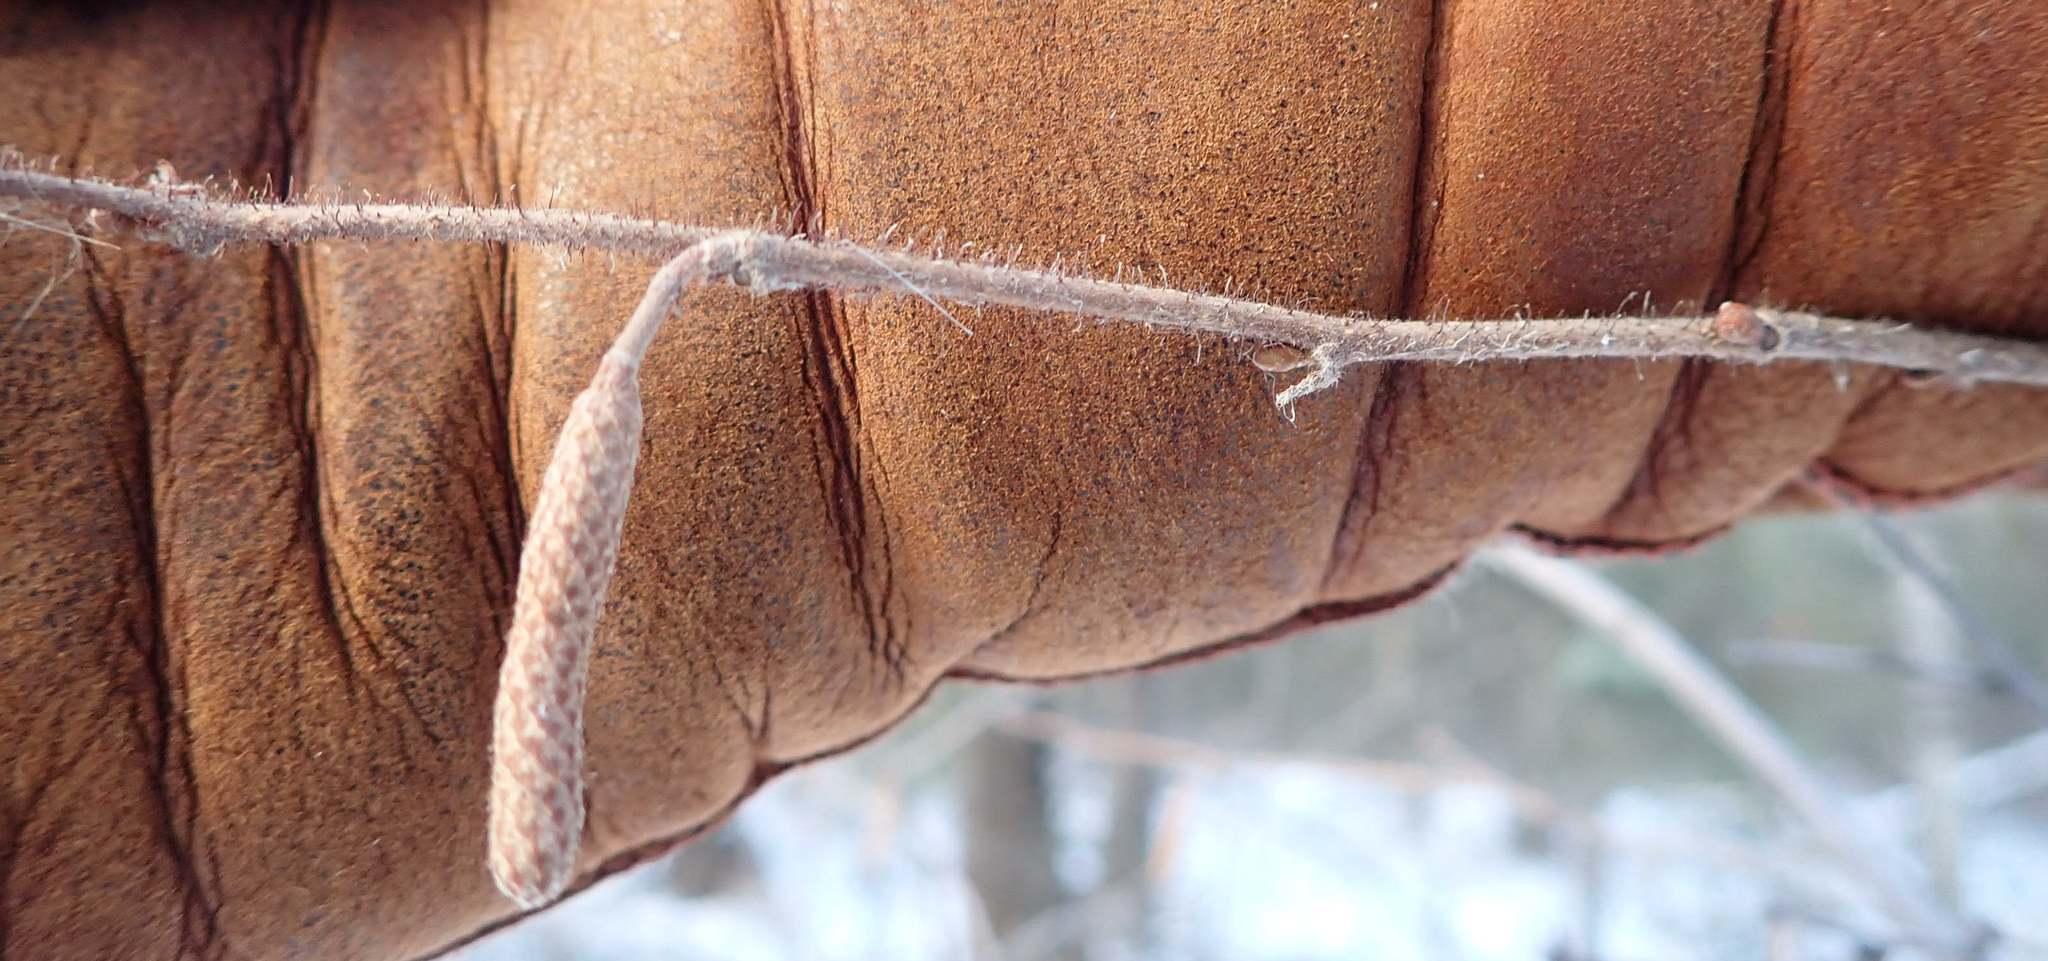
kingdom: Plantae
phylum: Tracheophyta
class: Magnoliopsida
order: Fagales
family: Betulaceae
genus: Corylus
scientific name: Corylus americana
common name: American hazel
